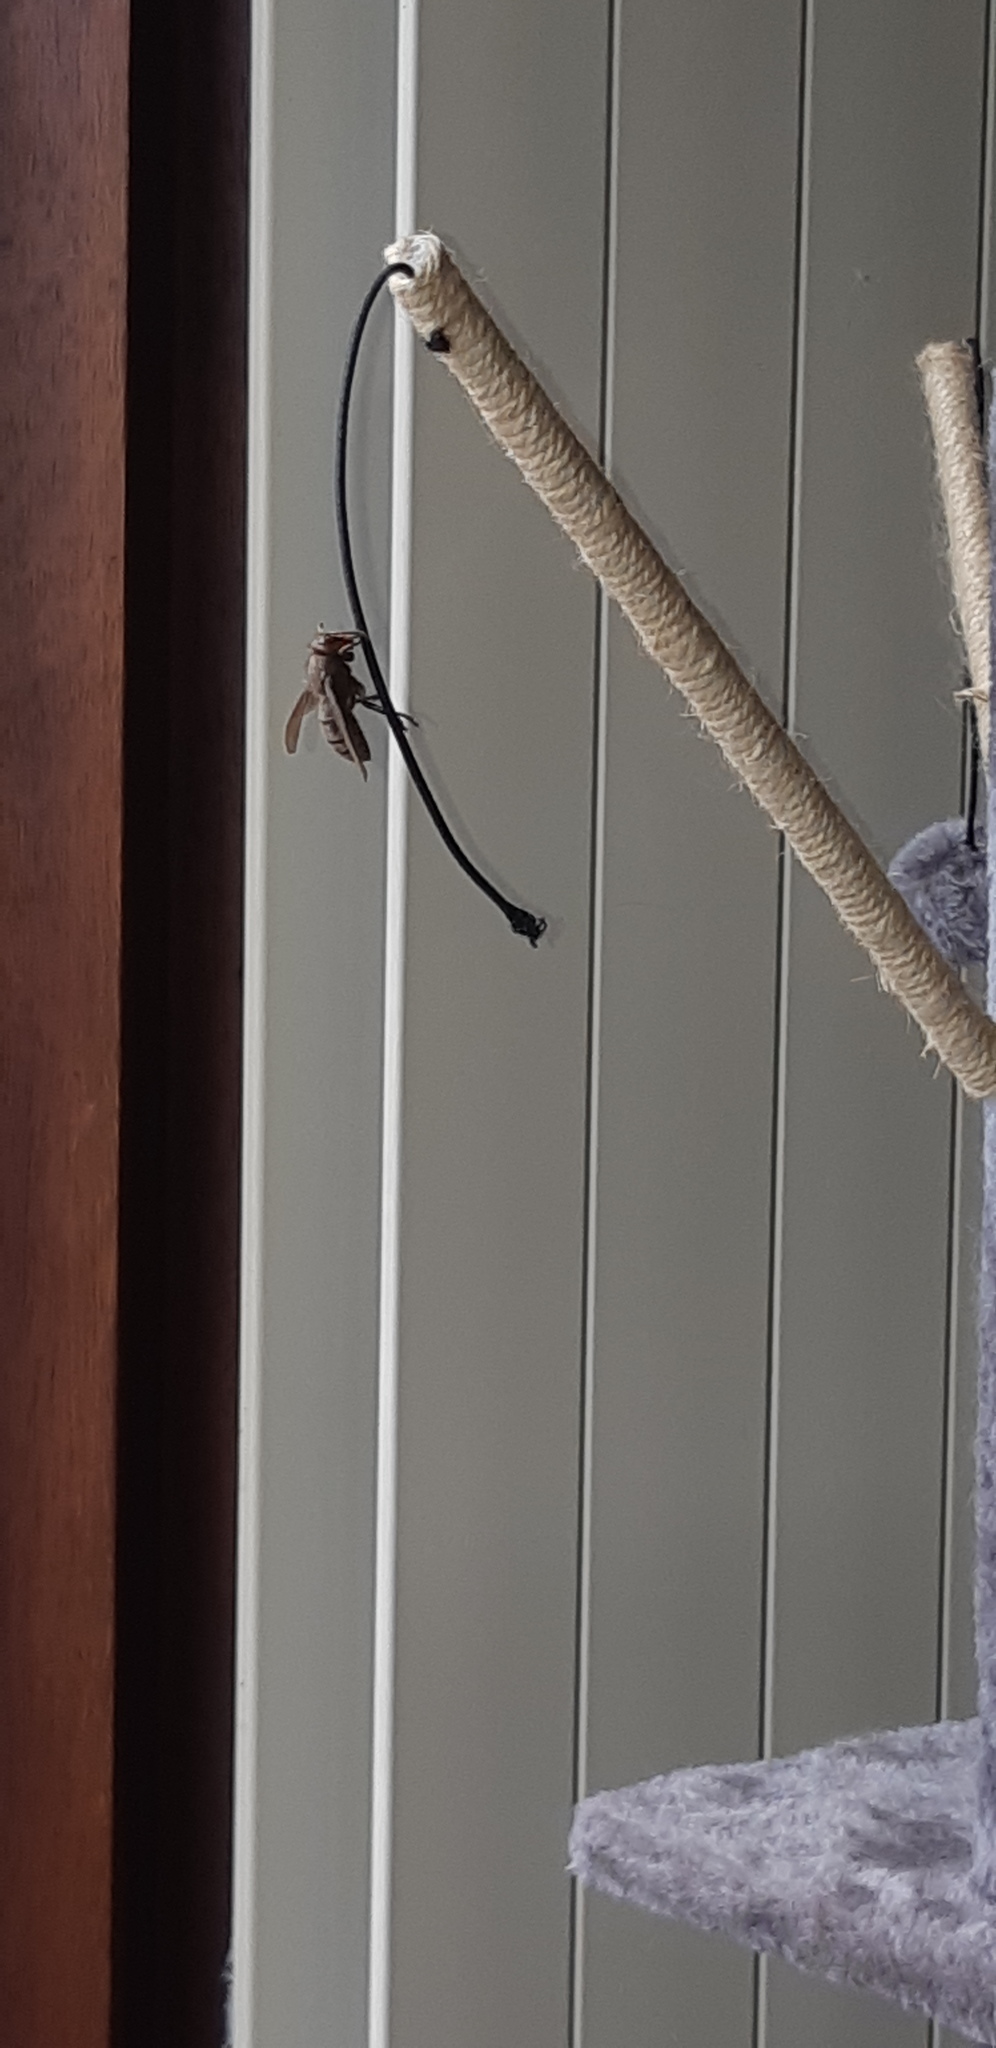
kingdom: Animalia
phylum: Arthropoda
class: Insecta
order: Hymenoptera
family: Vespidae
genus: Vespa
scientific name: Vespa crabro
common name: Hornet
